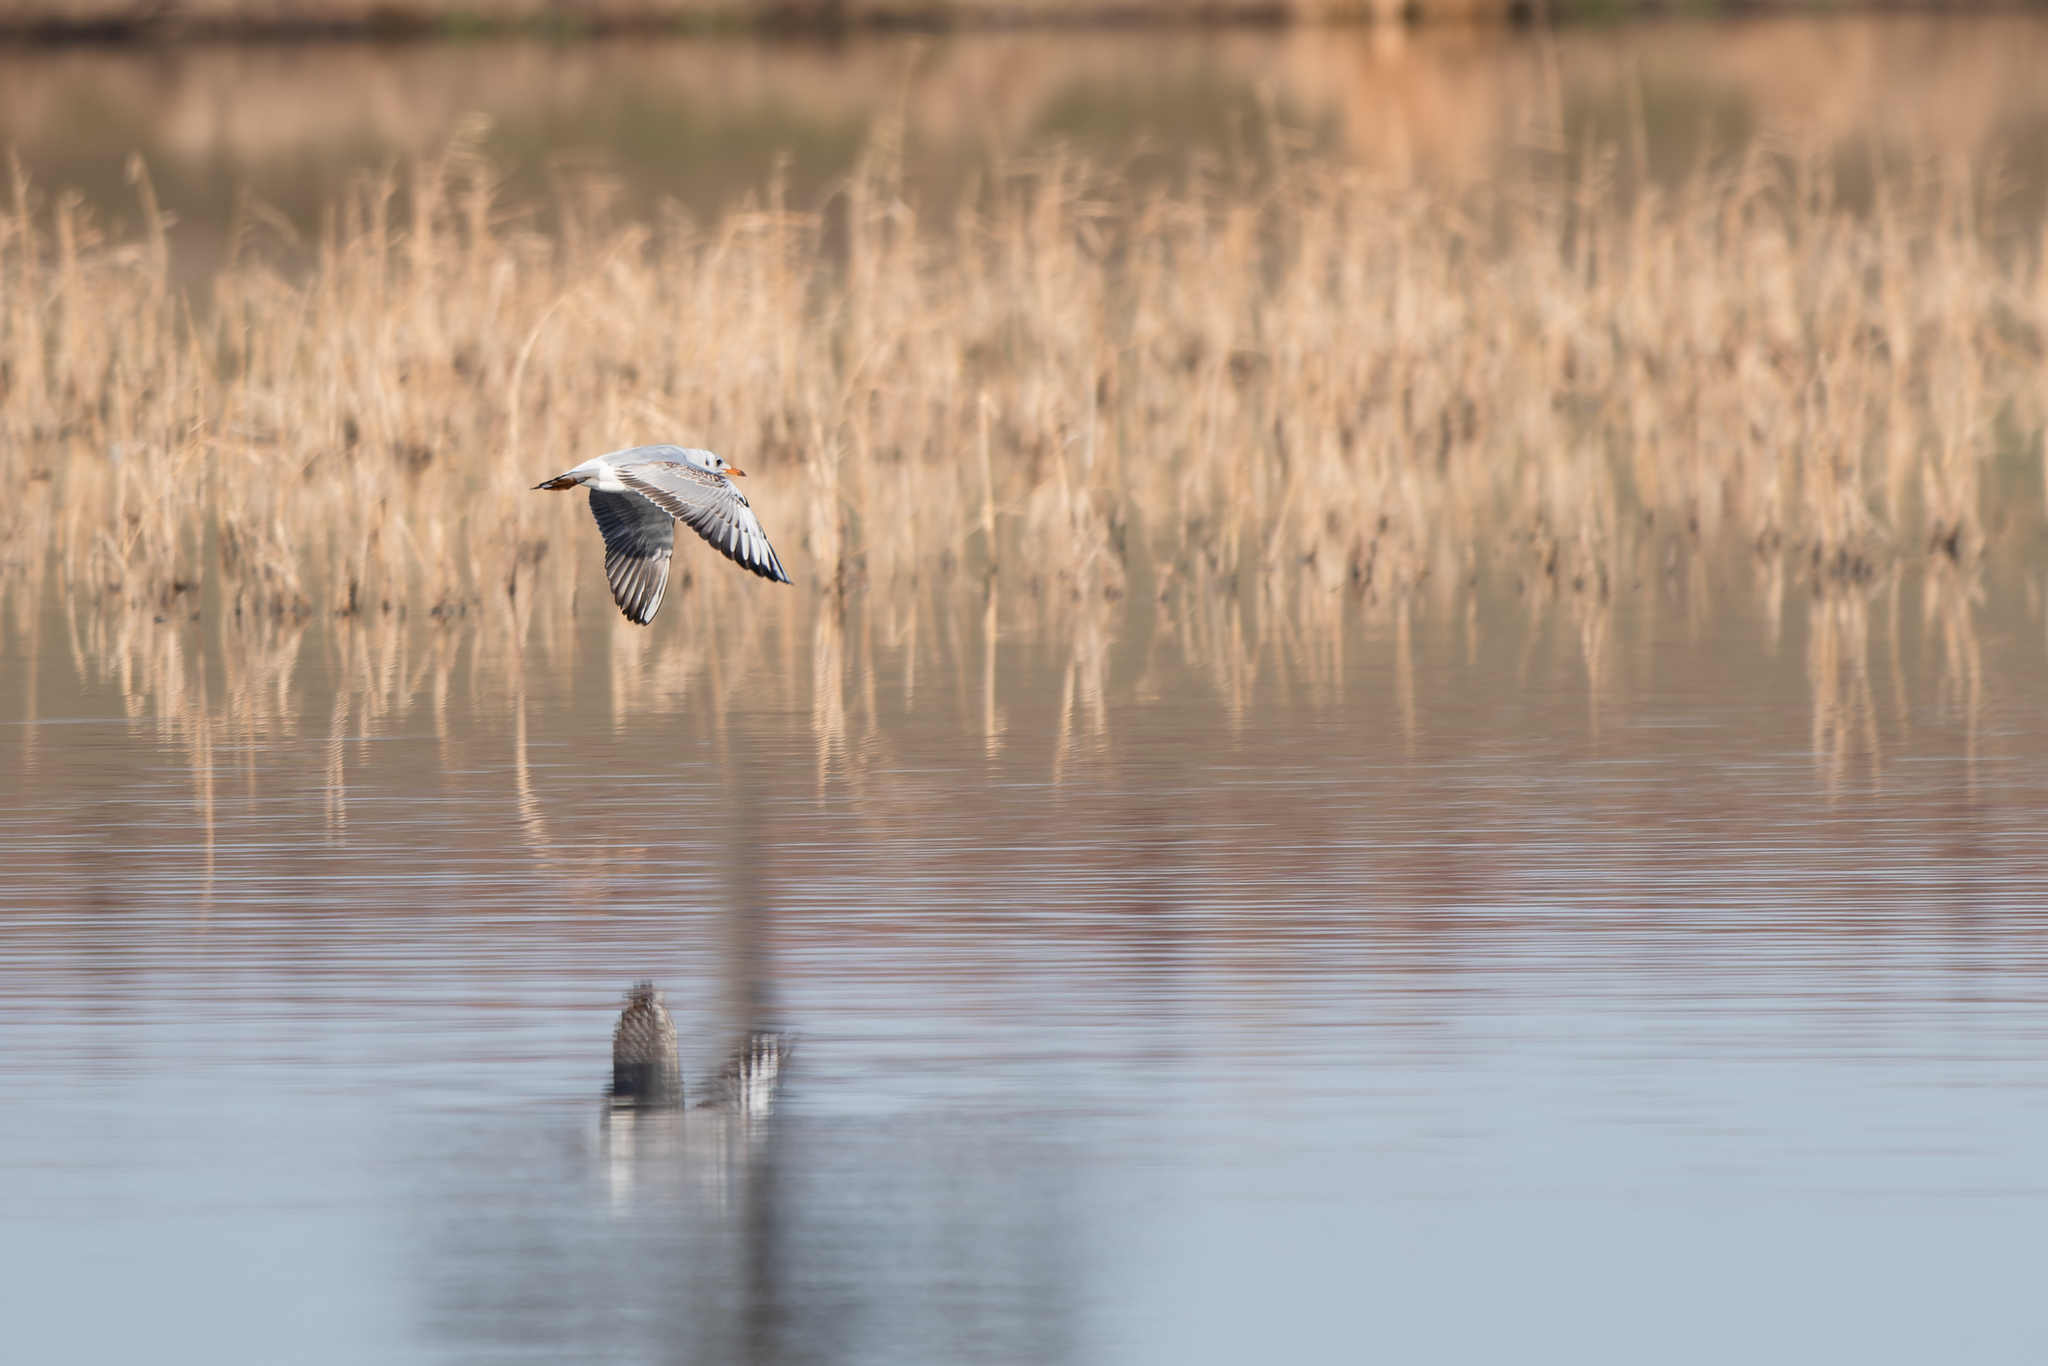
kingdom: Animalia
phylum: Chordata
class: Aves
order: Charadriiformes
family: Laridae
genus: Chroicocephalus
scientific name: Chroicocephalus ridibundus
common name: Black-headed gull
